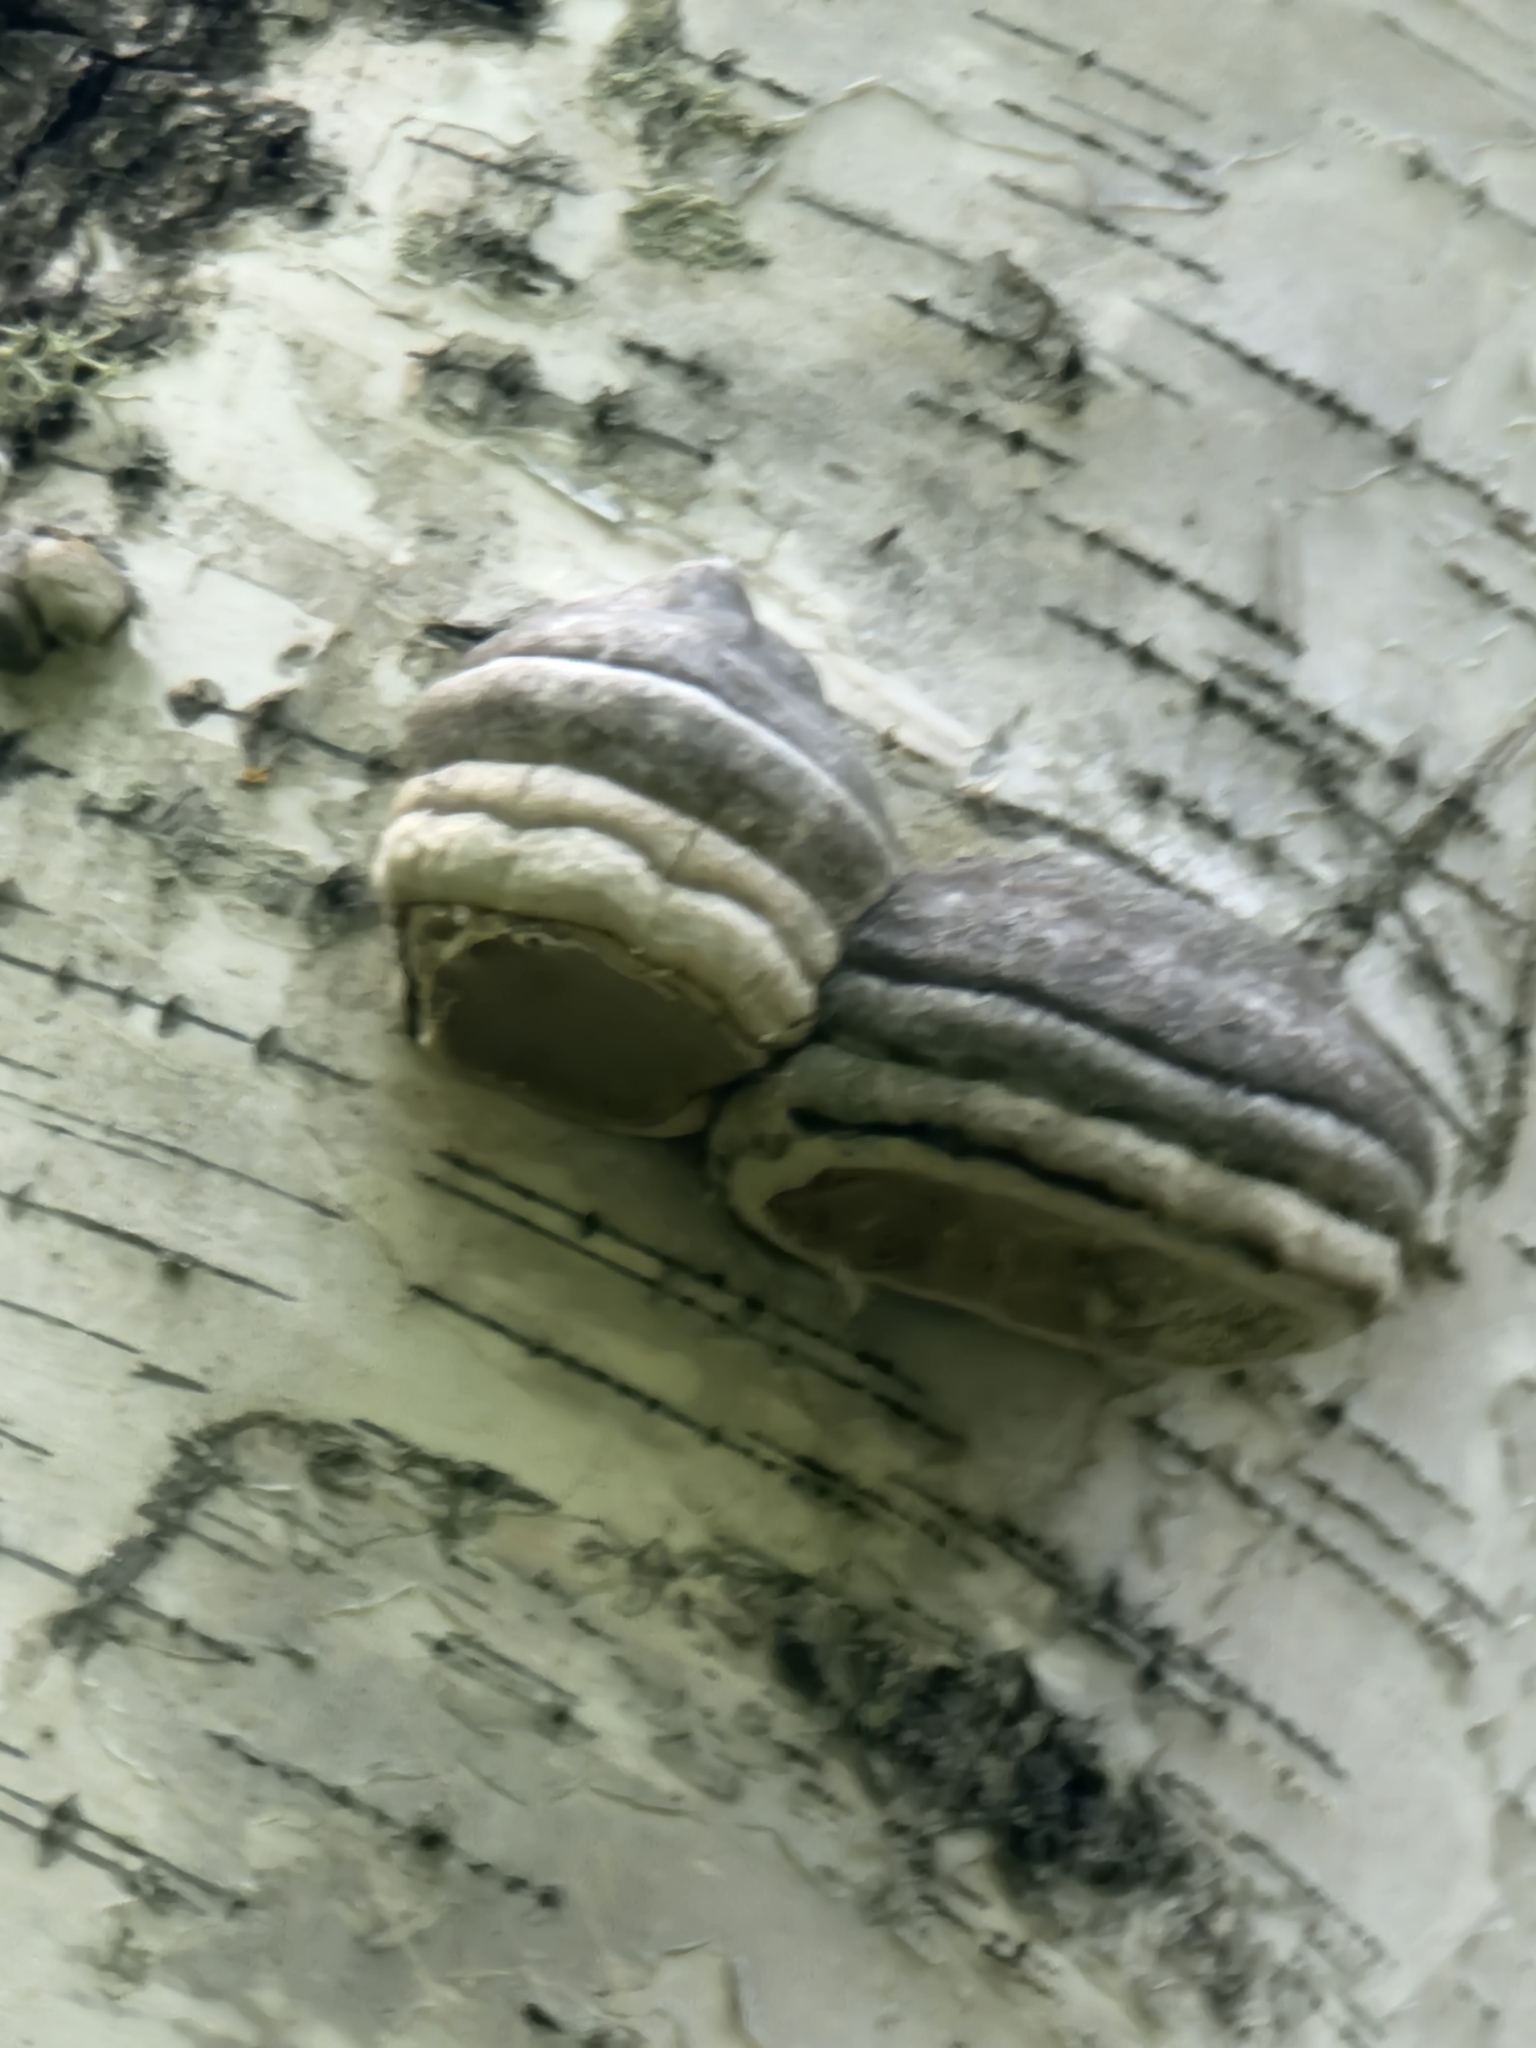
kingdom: Fungi
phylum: Basidiomycota
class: Agaricomycetes
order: Polyporales
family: Polyporaceae
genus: Fomes
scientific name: Fomes fomentarius
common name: Hoof fungus
